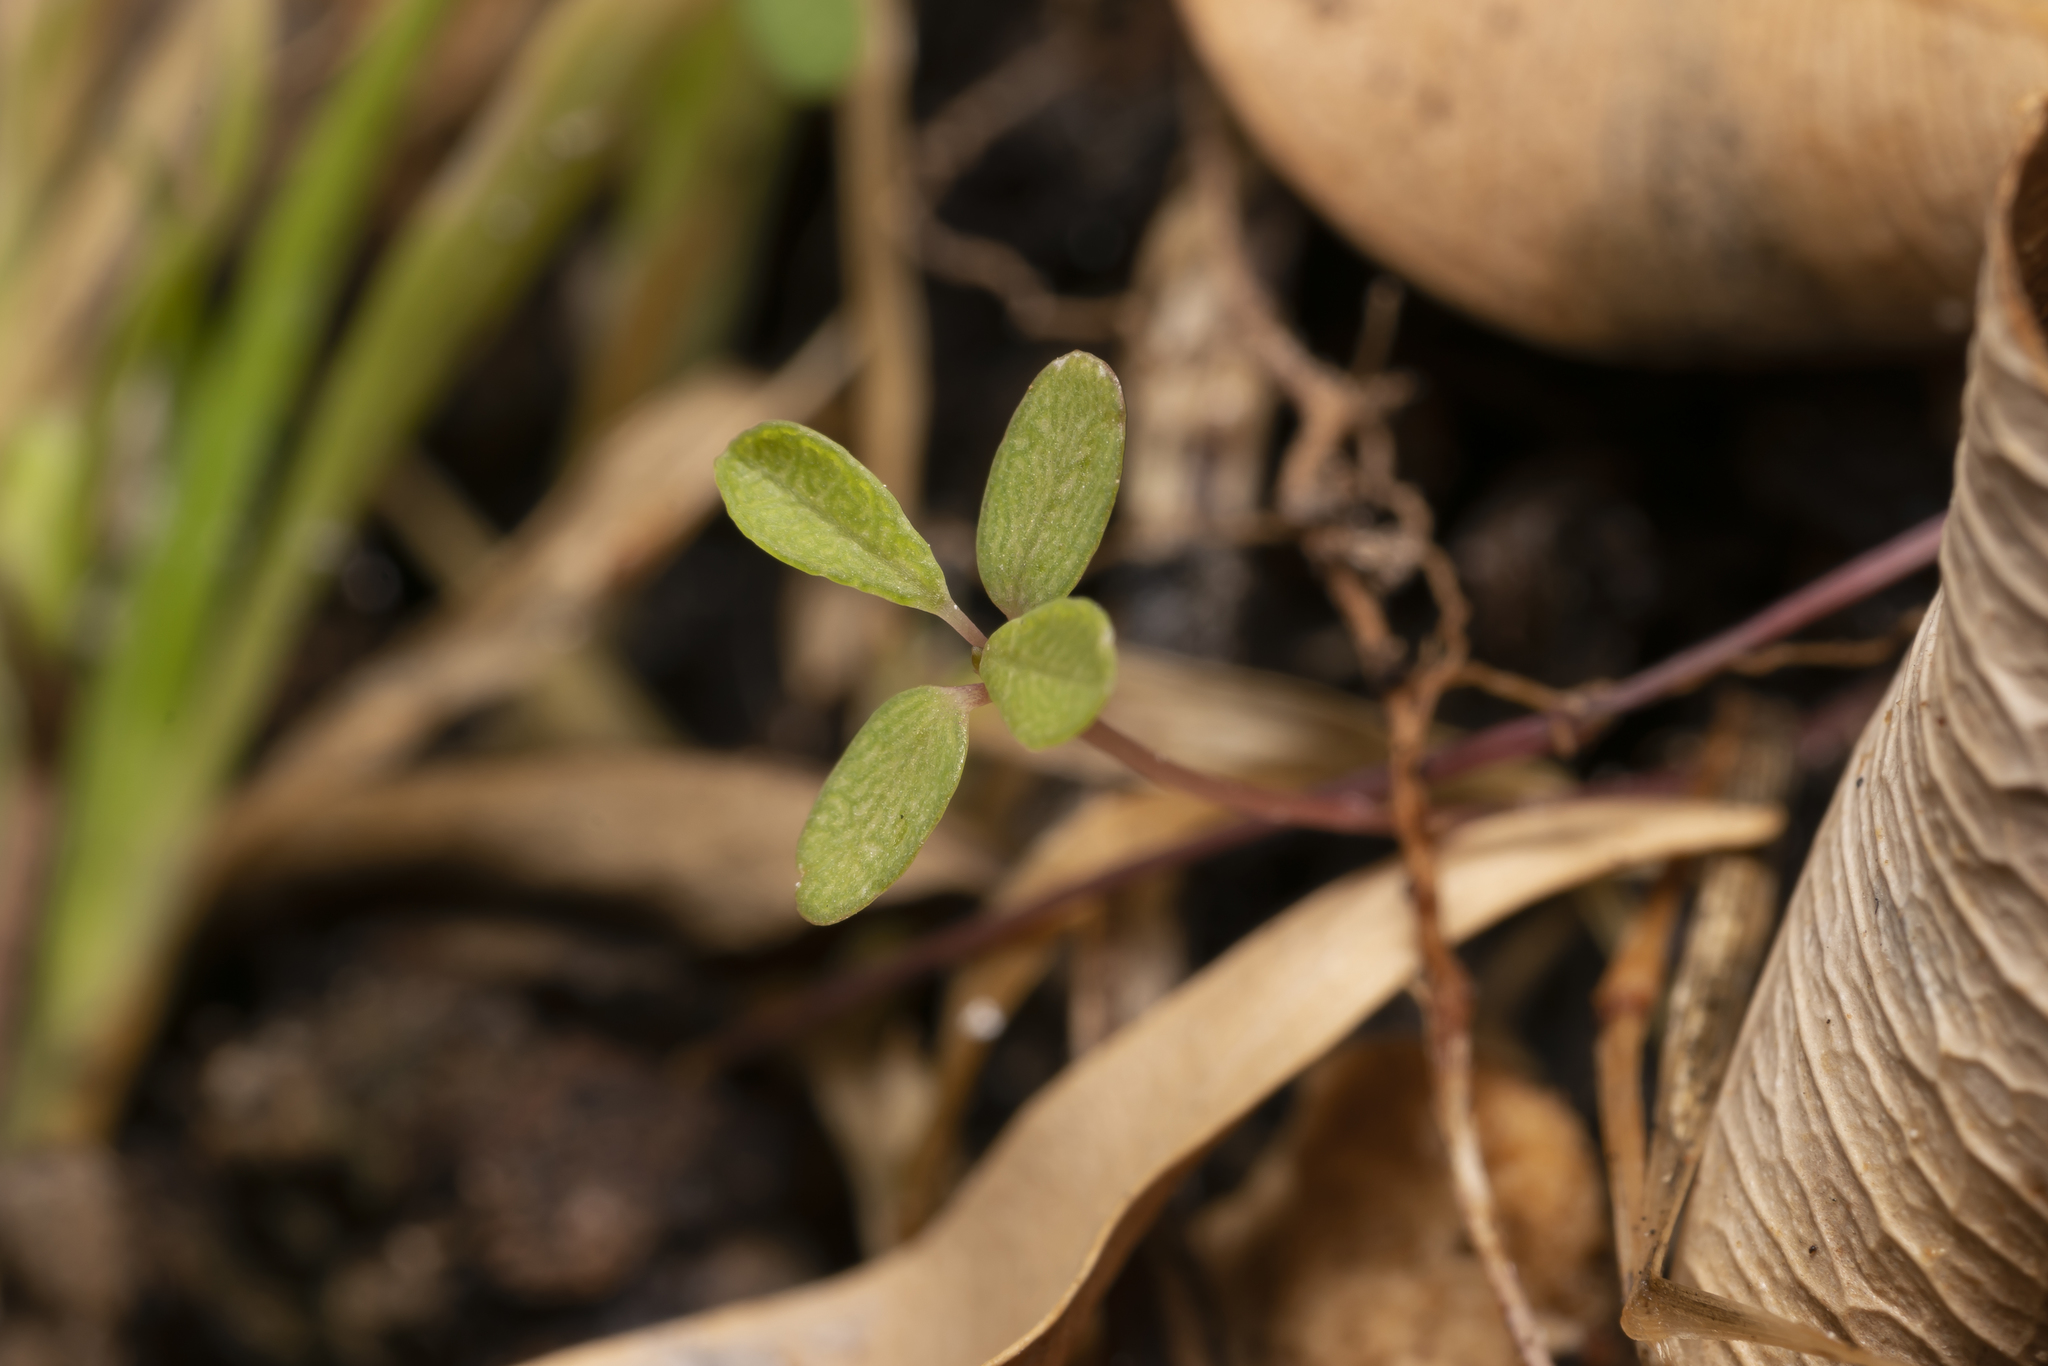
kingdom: Plantae
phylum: Tracheophyta
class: Magnoliopsida
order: Malpighiales
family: Euphorbiaceae
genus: Euphorbia
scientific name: Euphorbia hypericifolia
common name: Graceful sandmat
